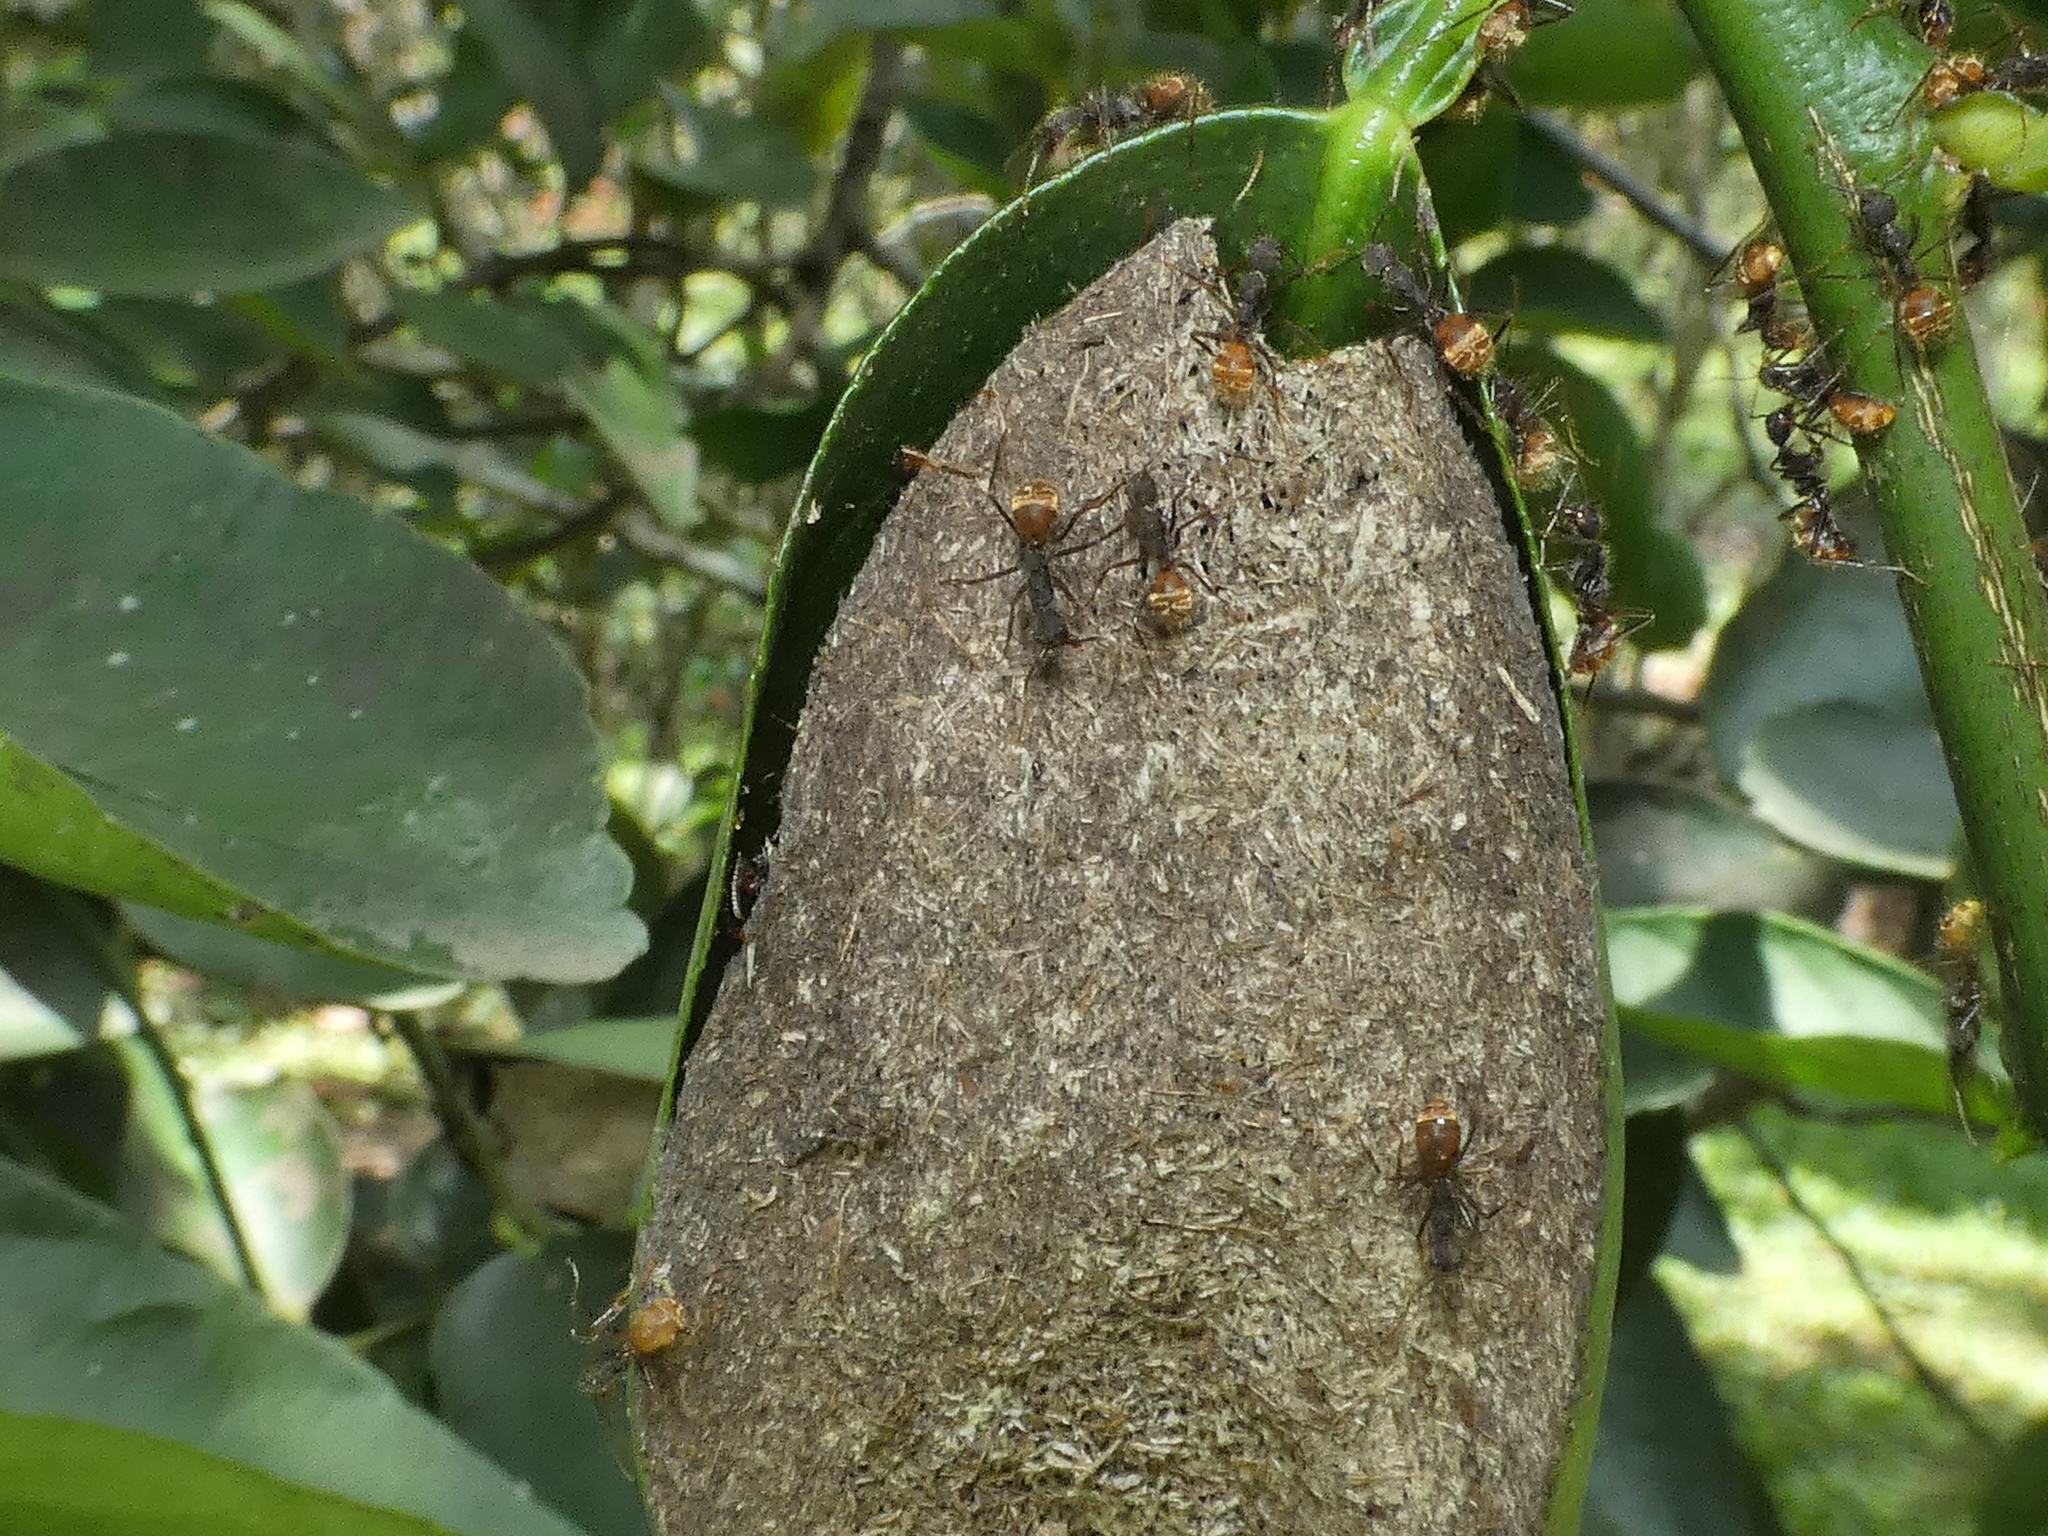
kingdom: Animalia
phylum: Arthropoda
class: Insecta
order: Hymenoptera
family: Formicidae
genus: Dolichoderus
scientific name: Dolichoderus bidens
